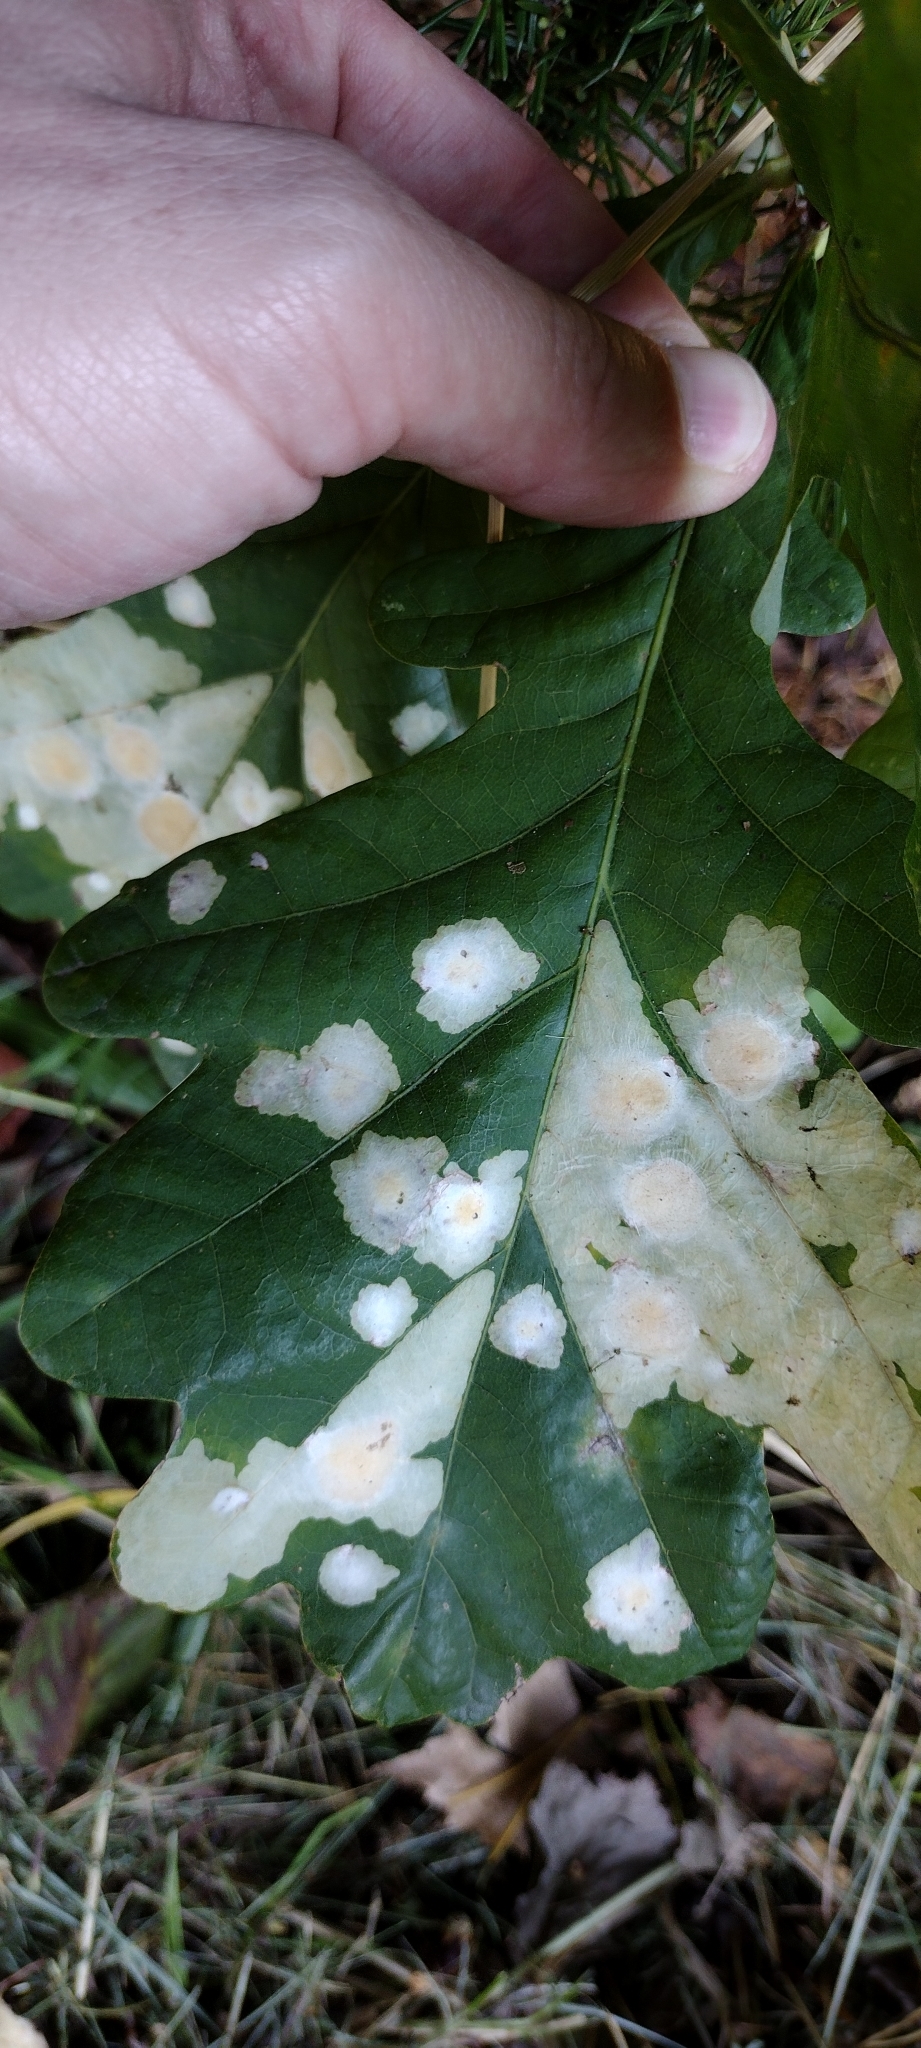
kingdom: Animalia
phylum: Arthropoda
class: Insecta
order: Lepidoptera
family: Tischeriidae
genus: Tischeria
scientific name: Tischeria ekebladella
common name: Oak carl
